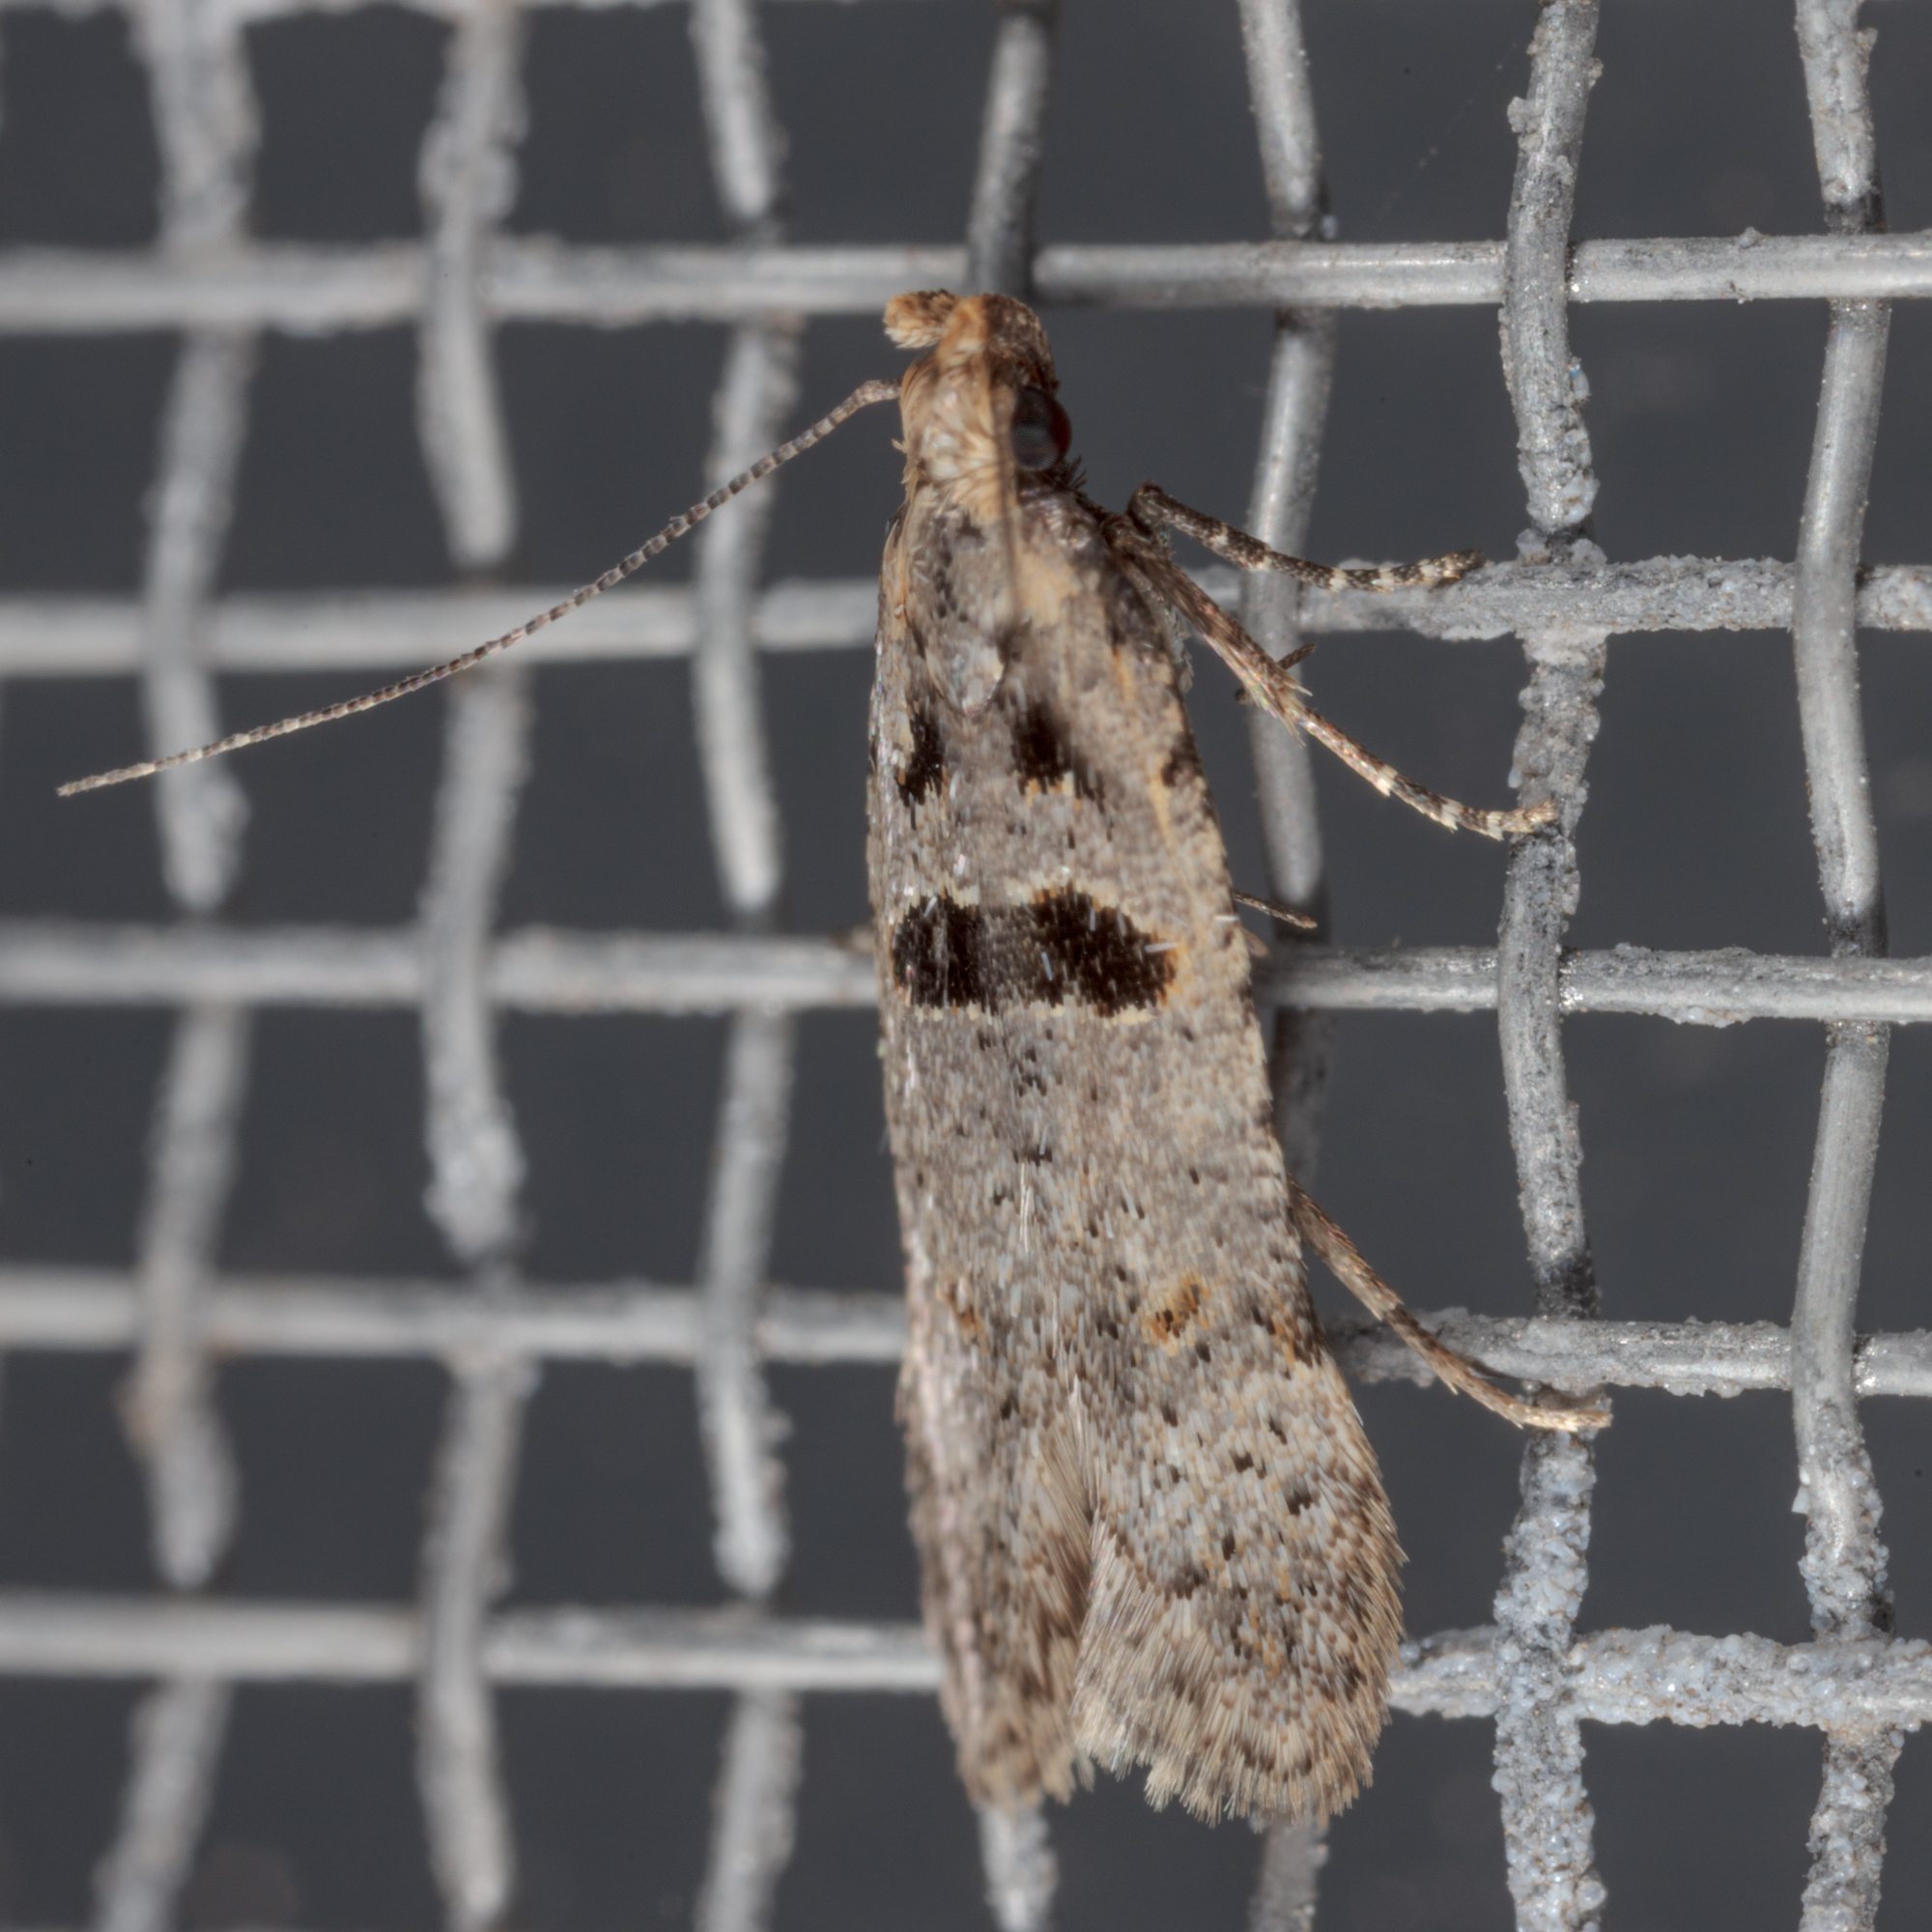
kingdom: Animalia
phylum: Arthropoda
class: Insecta
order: Lepidoptera
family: Gelechiidae
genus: Deltophora
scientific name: Deltophora glandiferella
